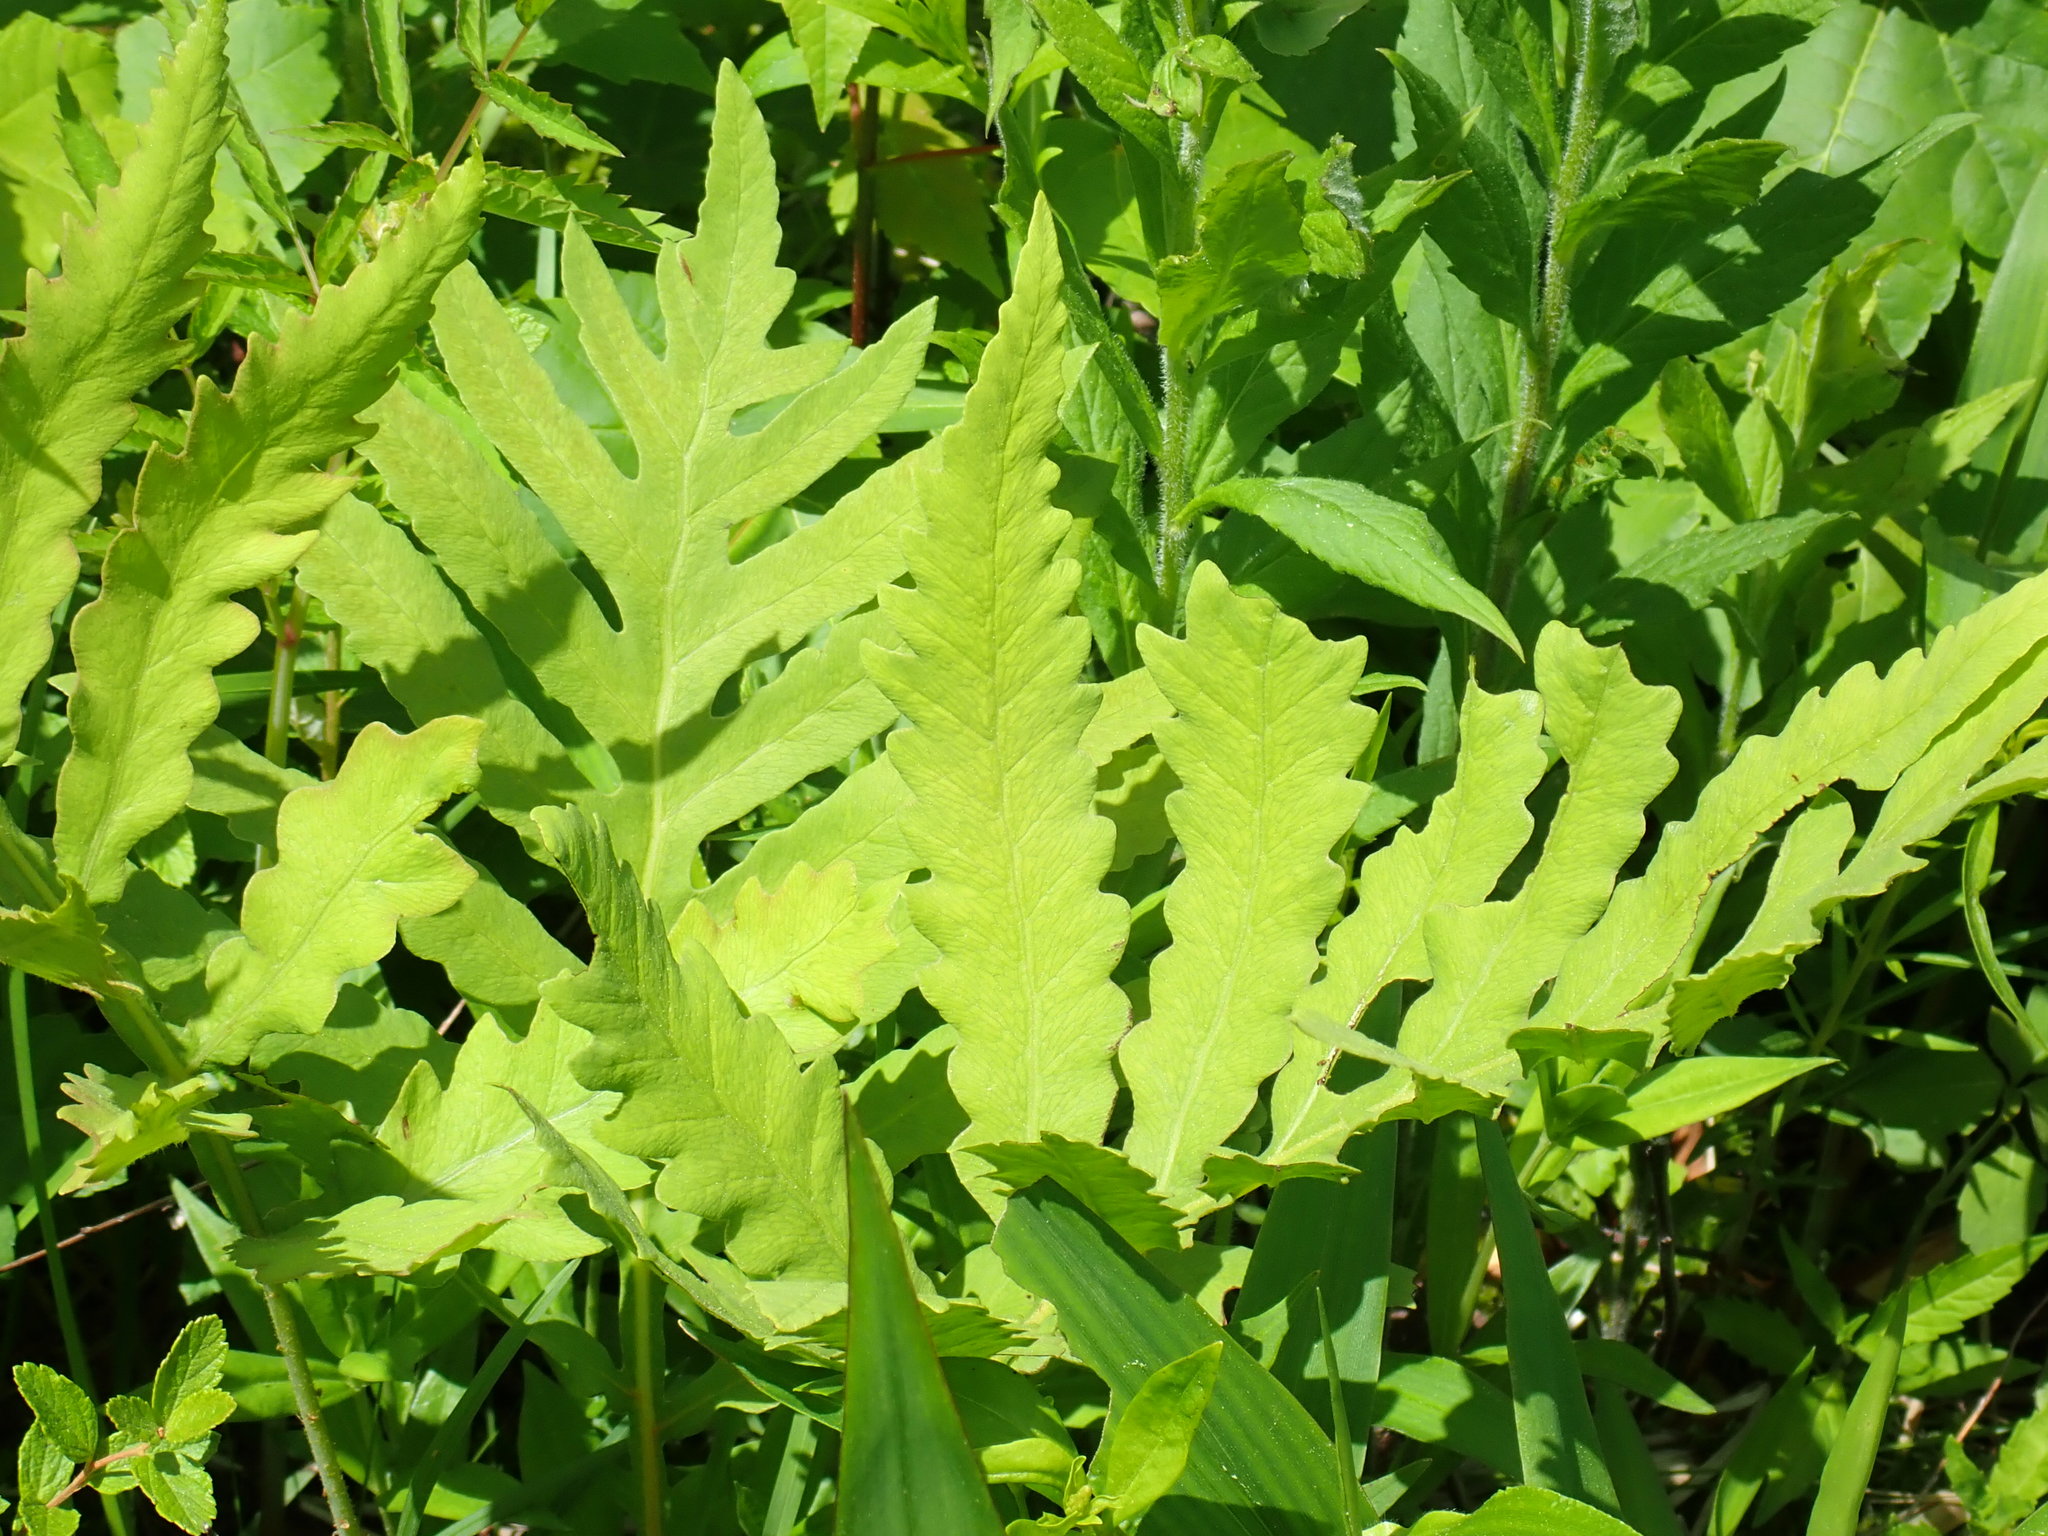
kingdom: Plantae
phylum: Tracheophyta
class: Polypodiopsida
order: Polypodiales
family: Onocleaceae
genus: Onoclea
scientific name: Onoclea sensibilis
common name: Sensitive fern
